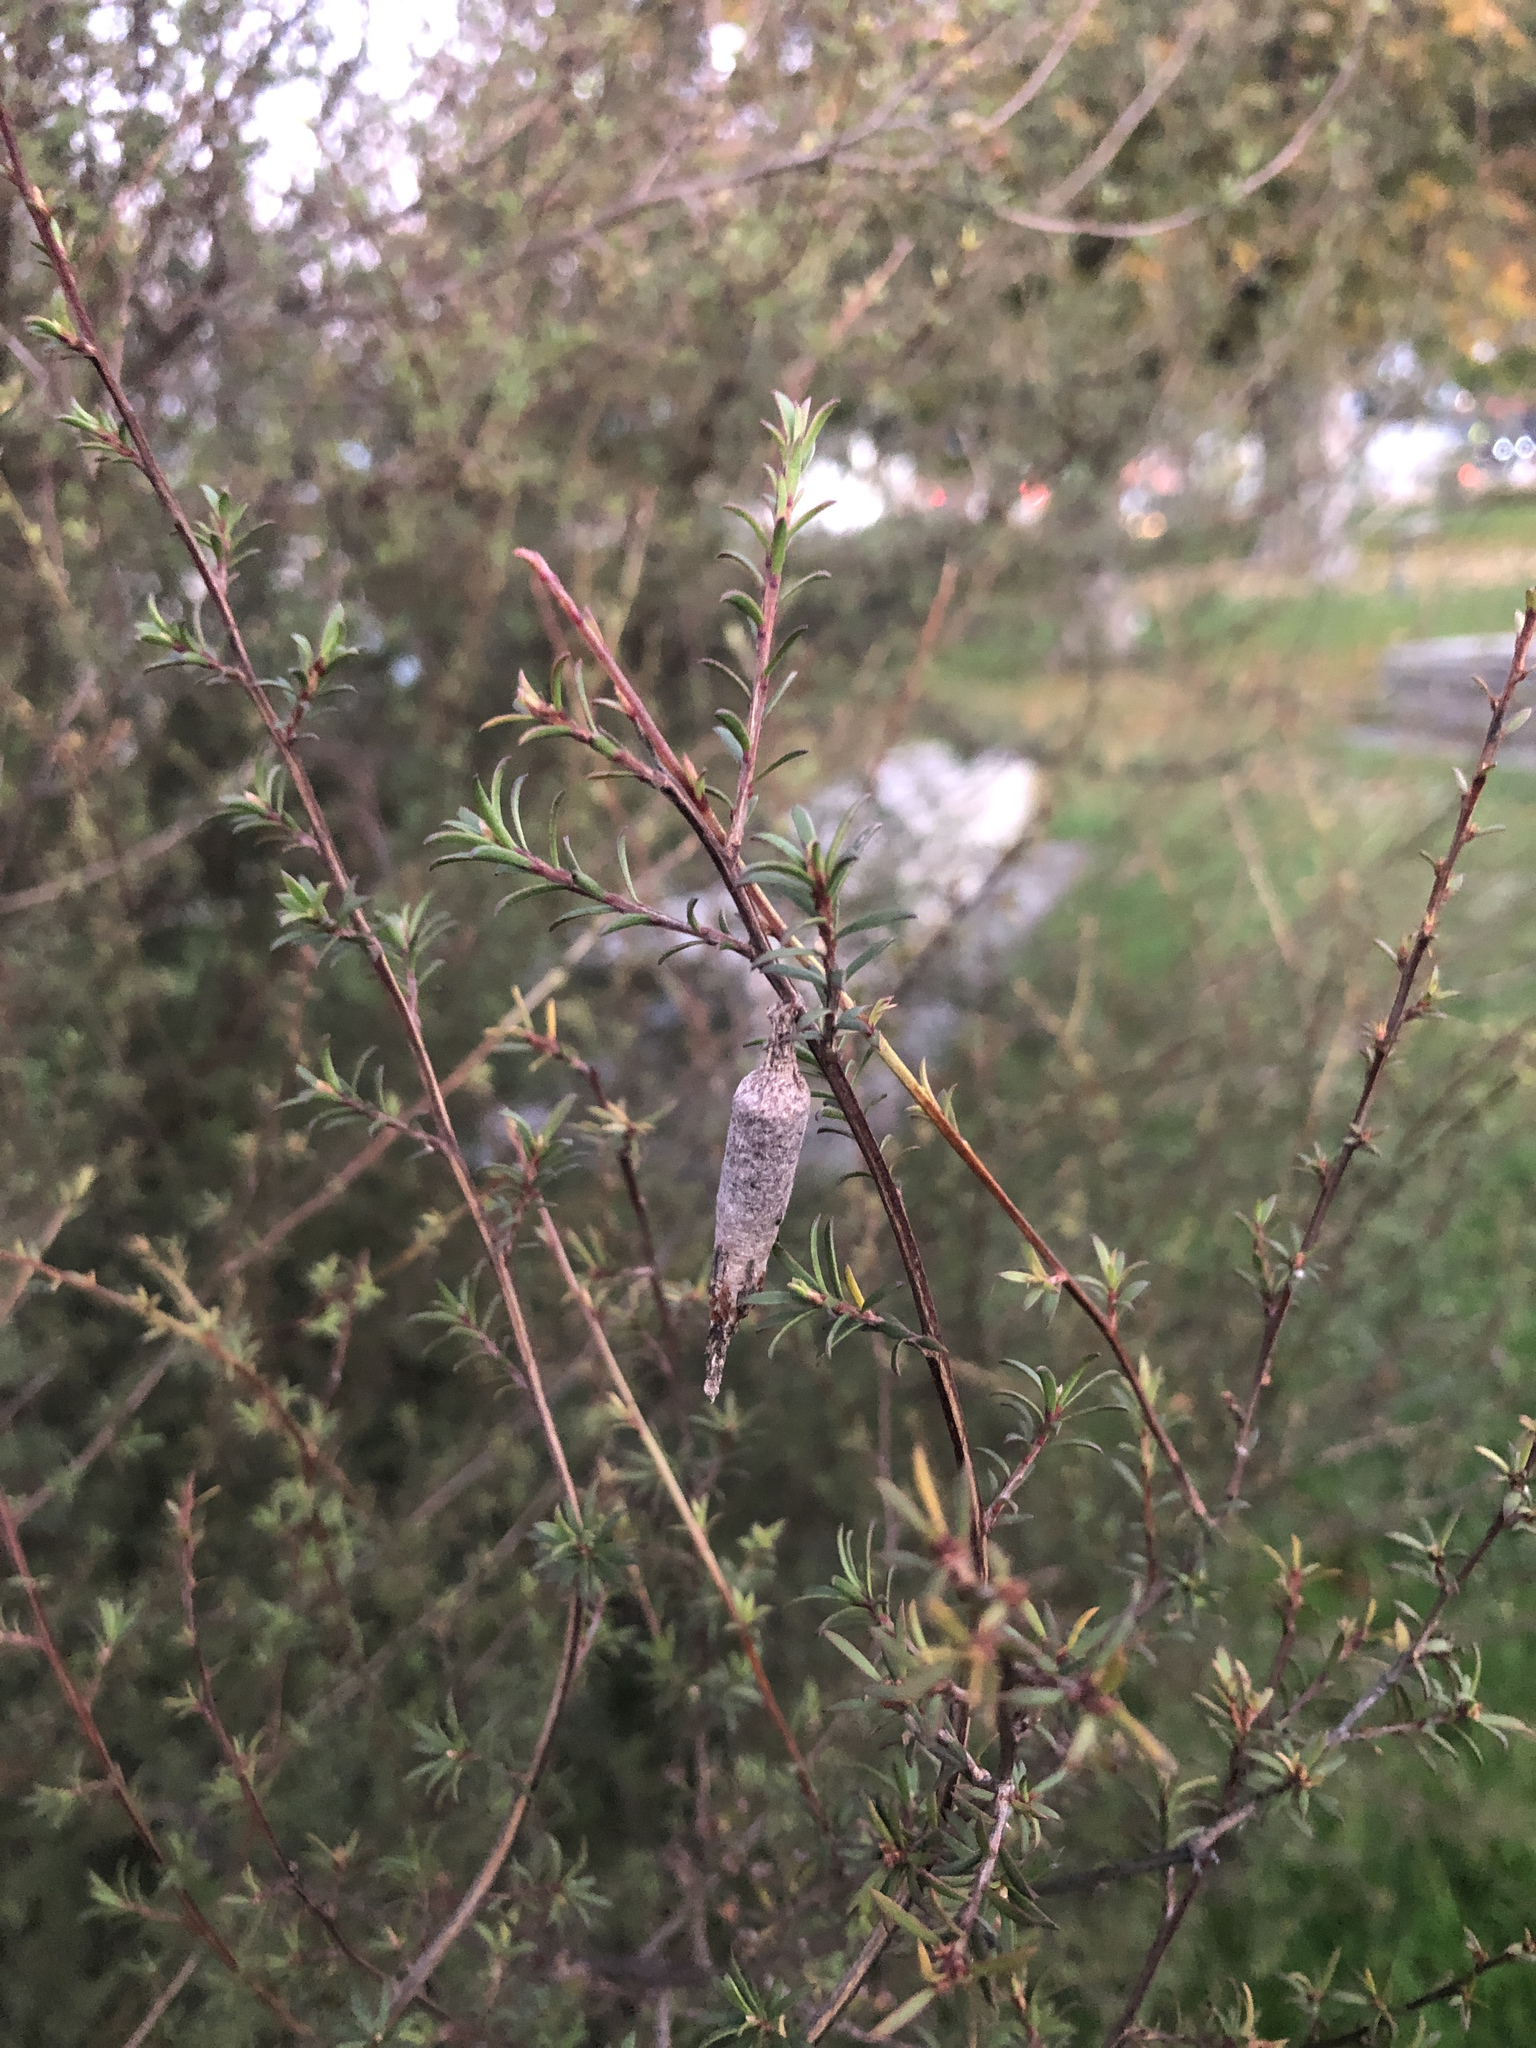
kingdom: Animalia
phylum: Arthropoda
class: Insecta
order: Lepidoptera
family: Psychidae
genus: Liothula
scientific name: Liothula omnivora
